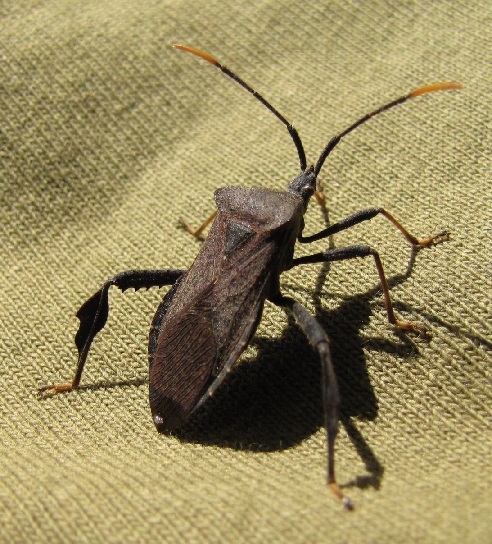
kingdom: Animalia
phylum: Arthropoda
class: Insecta
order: Hemiptera
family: Coreidae
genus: Acanthocephala
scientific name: Acanthocephala terminalis
